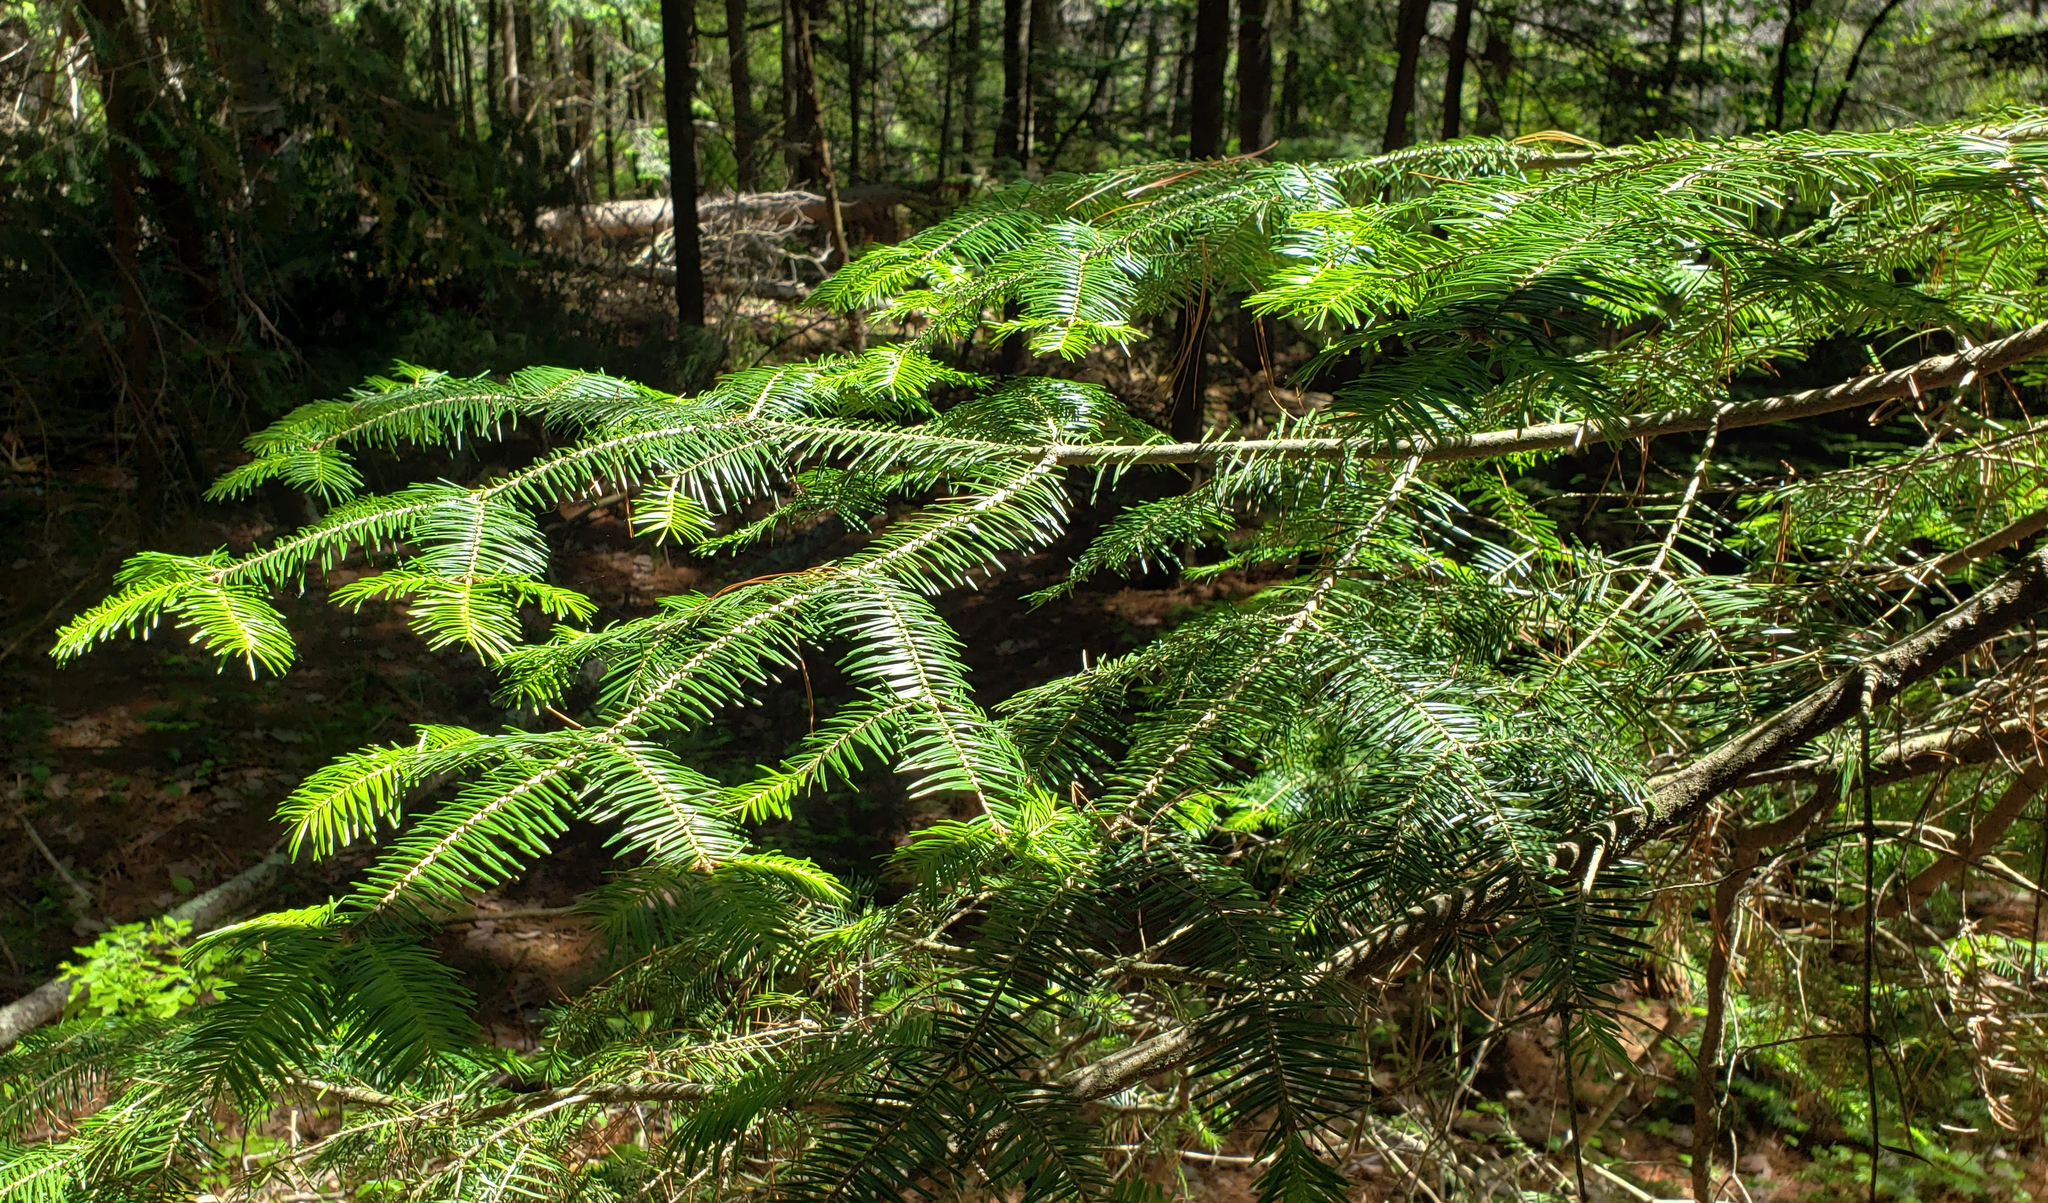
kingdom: Plantae
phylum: Tracheophyta
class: Pinopsida
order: Pinales
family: Pinaceae
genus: Abies
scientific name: Abies balsamea
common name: Balsam fir
